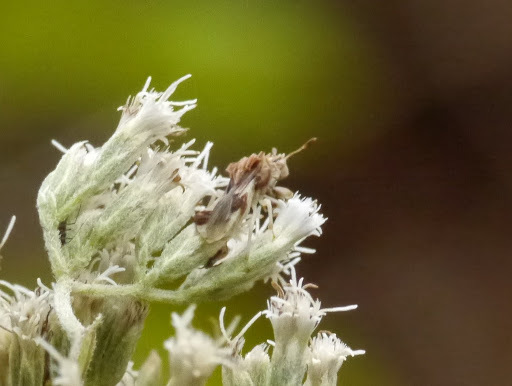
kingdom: Animalia
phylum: Arthropoda
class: Insecta
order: Hemiptera
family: Reduviidae
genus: Phymata
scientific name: Phymata fasciata
